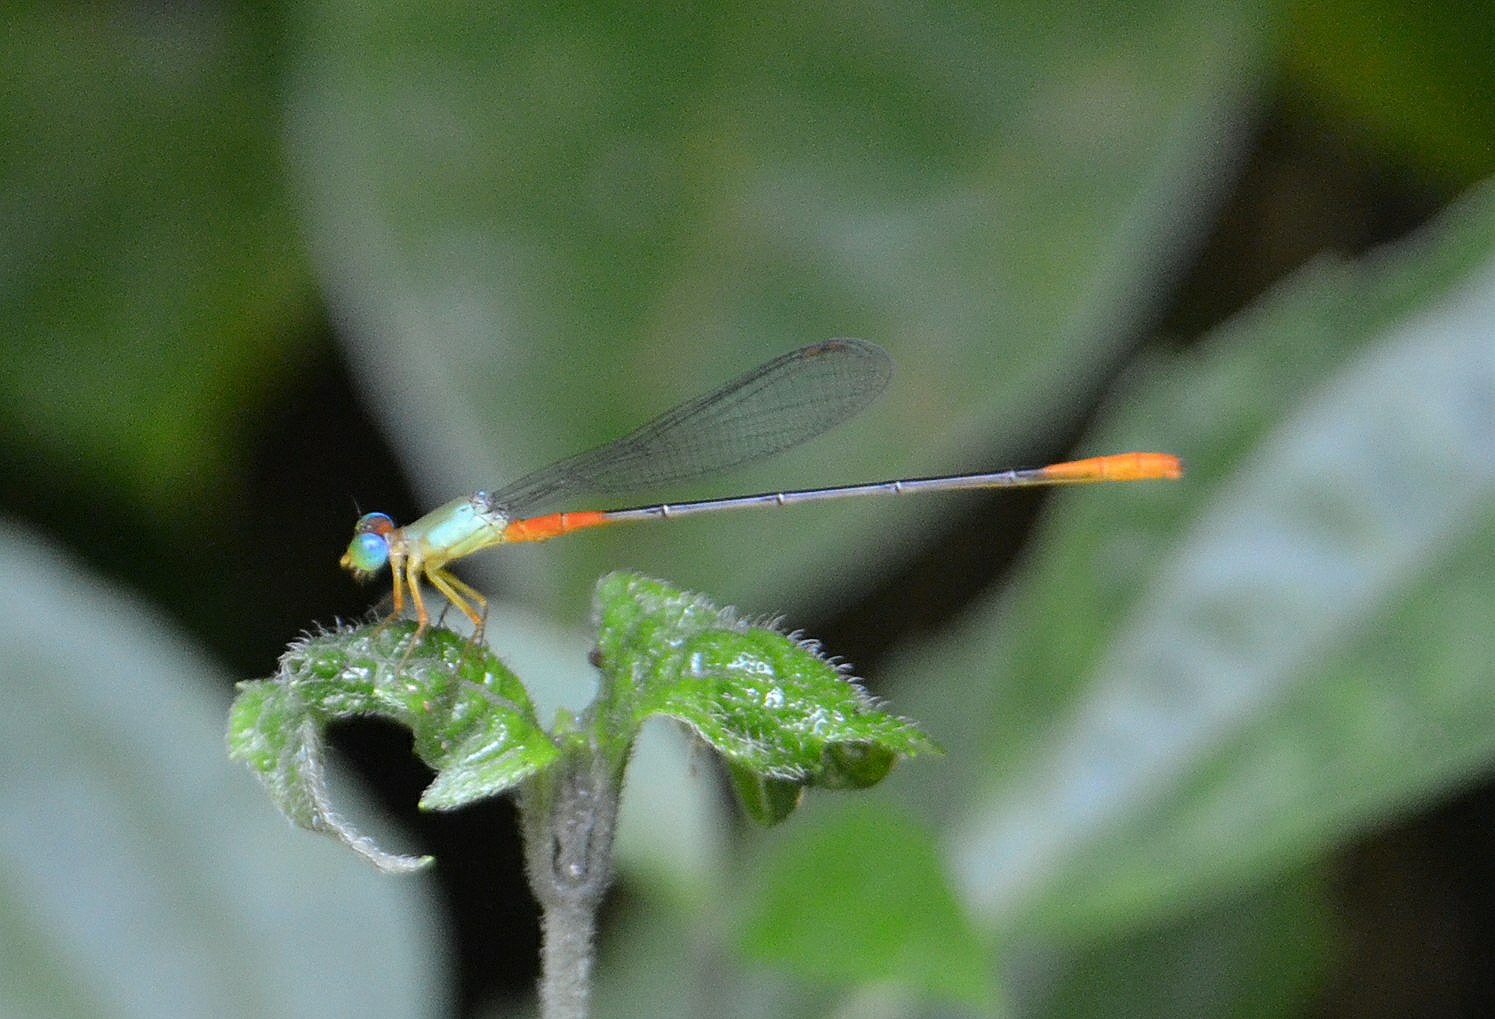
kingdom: Animalia
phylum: Arthropoda
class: Insecta
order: Odonata
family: Coenagrionidae
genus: Ceriagrion
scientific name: Ceriagrion cerinorubellum
